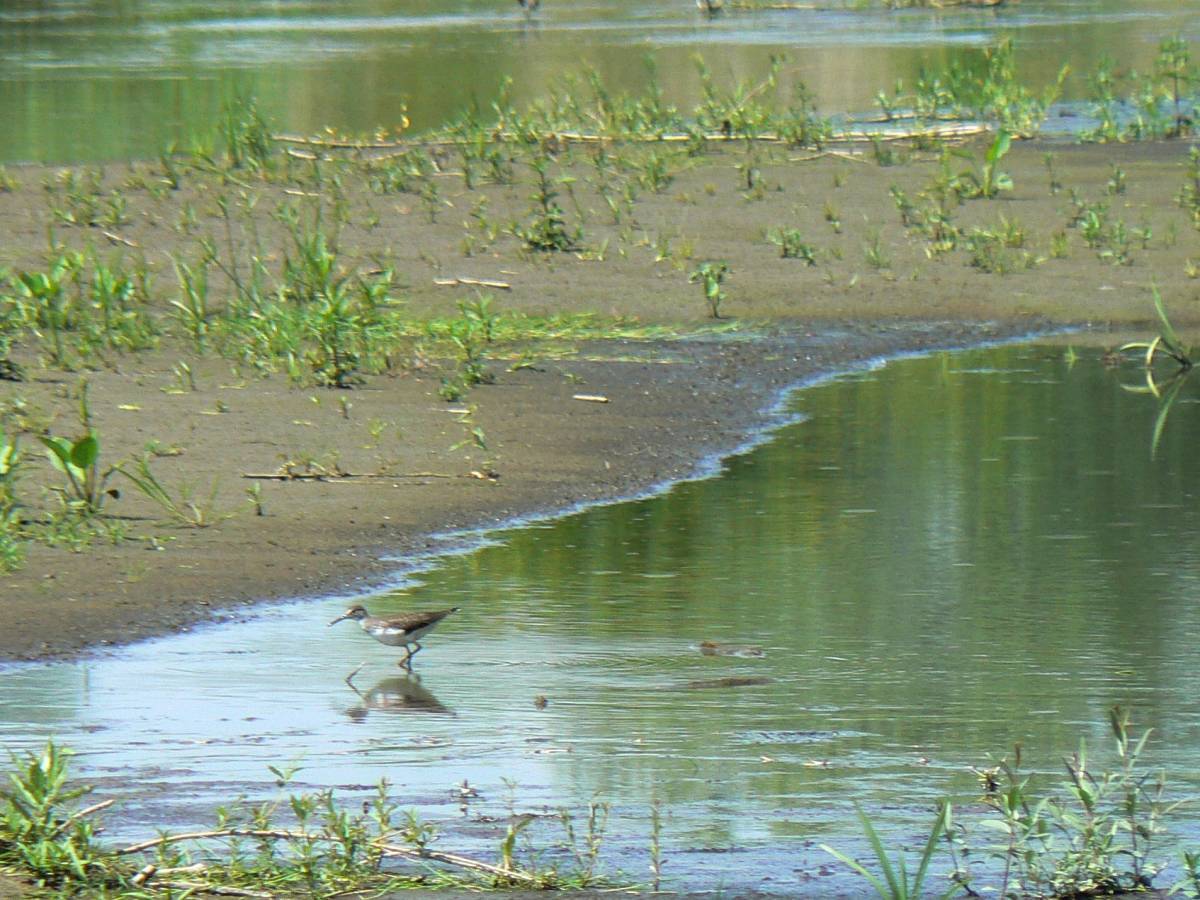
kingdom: Animalia
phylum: Chordata
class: Aves
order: Charadriiformes
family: Scolopacidae
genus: Tringa
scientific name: Tringa ochropus
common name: Green sandpiper
